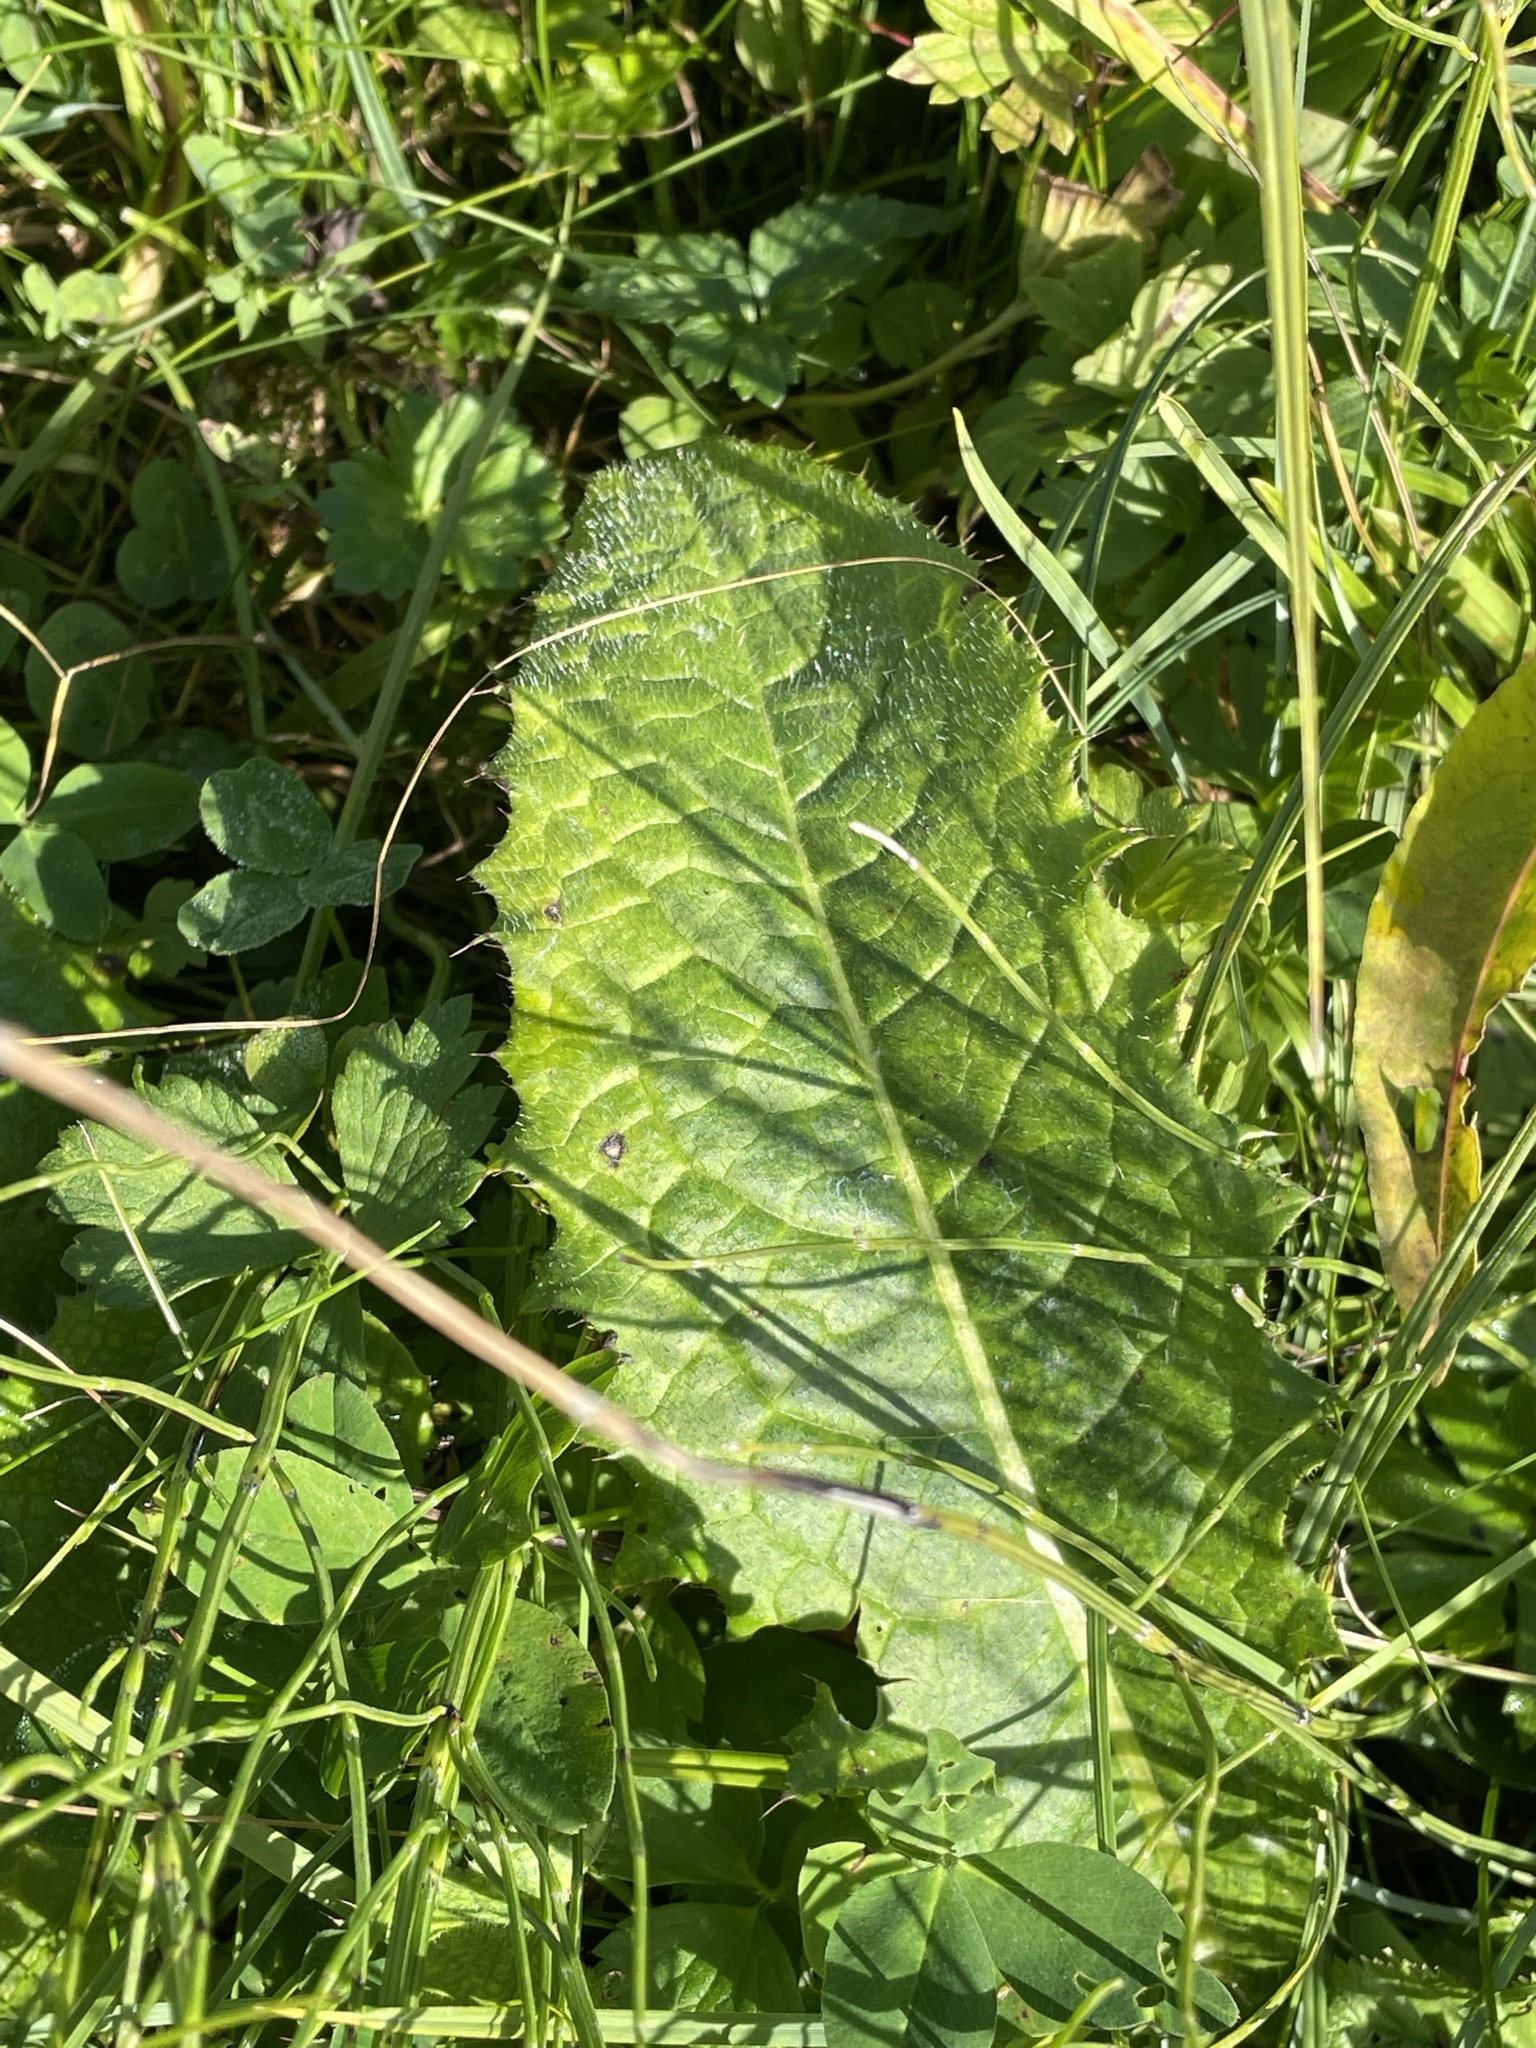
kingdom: Plantae
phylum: Tracheophyta
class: Magnoliopsida
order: Asterales
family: Asteraceae
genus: Cirsium
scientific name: Cirsium rivulare
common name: Brook thistle
